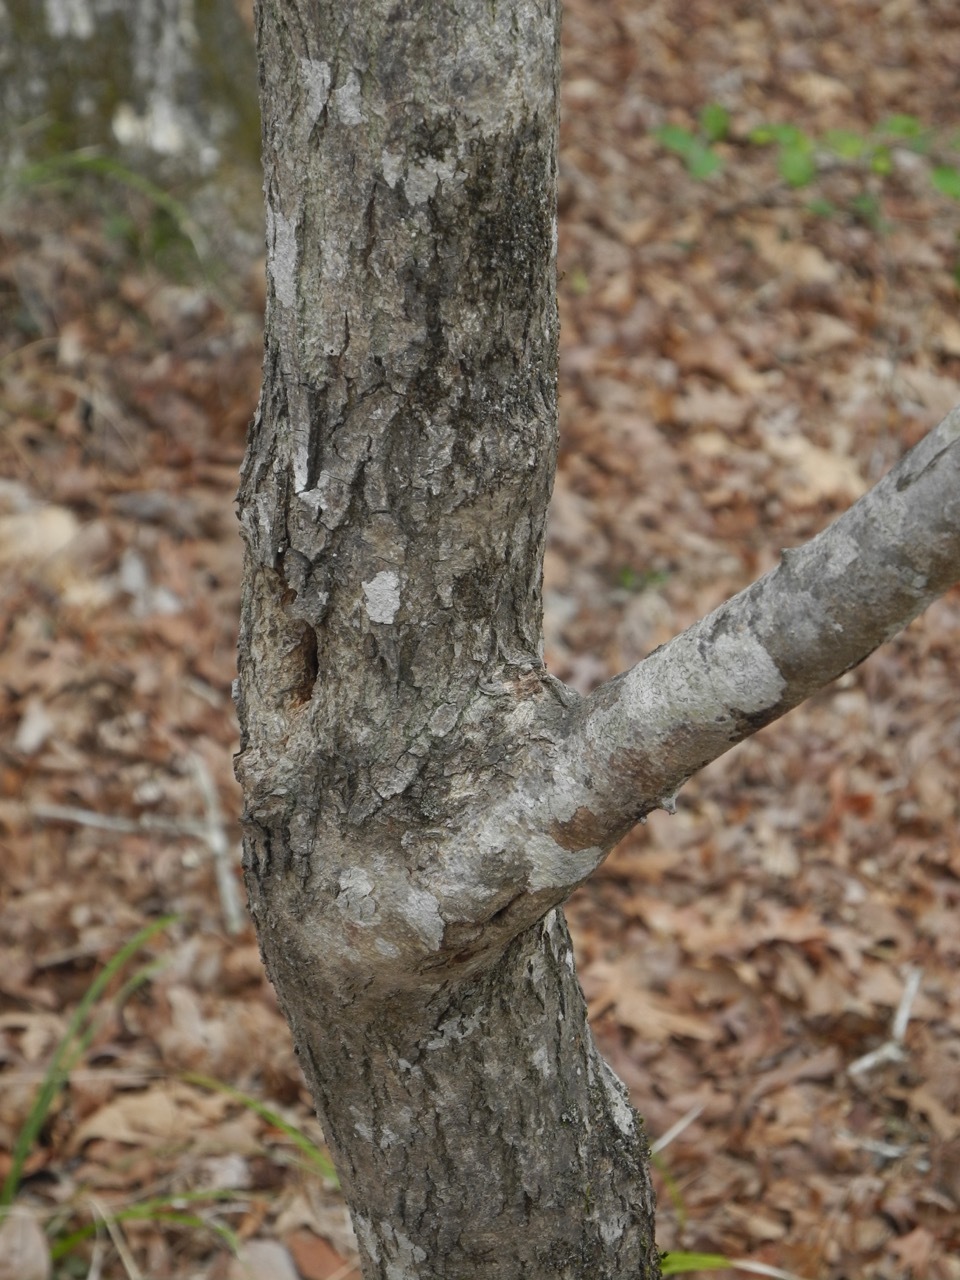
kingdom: Plantae
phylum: Tracheophyta
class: Magnoliopsida
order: Fabales
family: Fabaceae
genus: Cercis
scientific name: Cercis canadensis
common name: Eastern redbud
